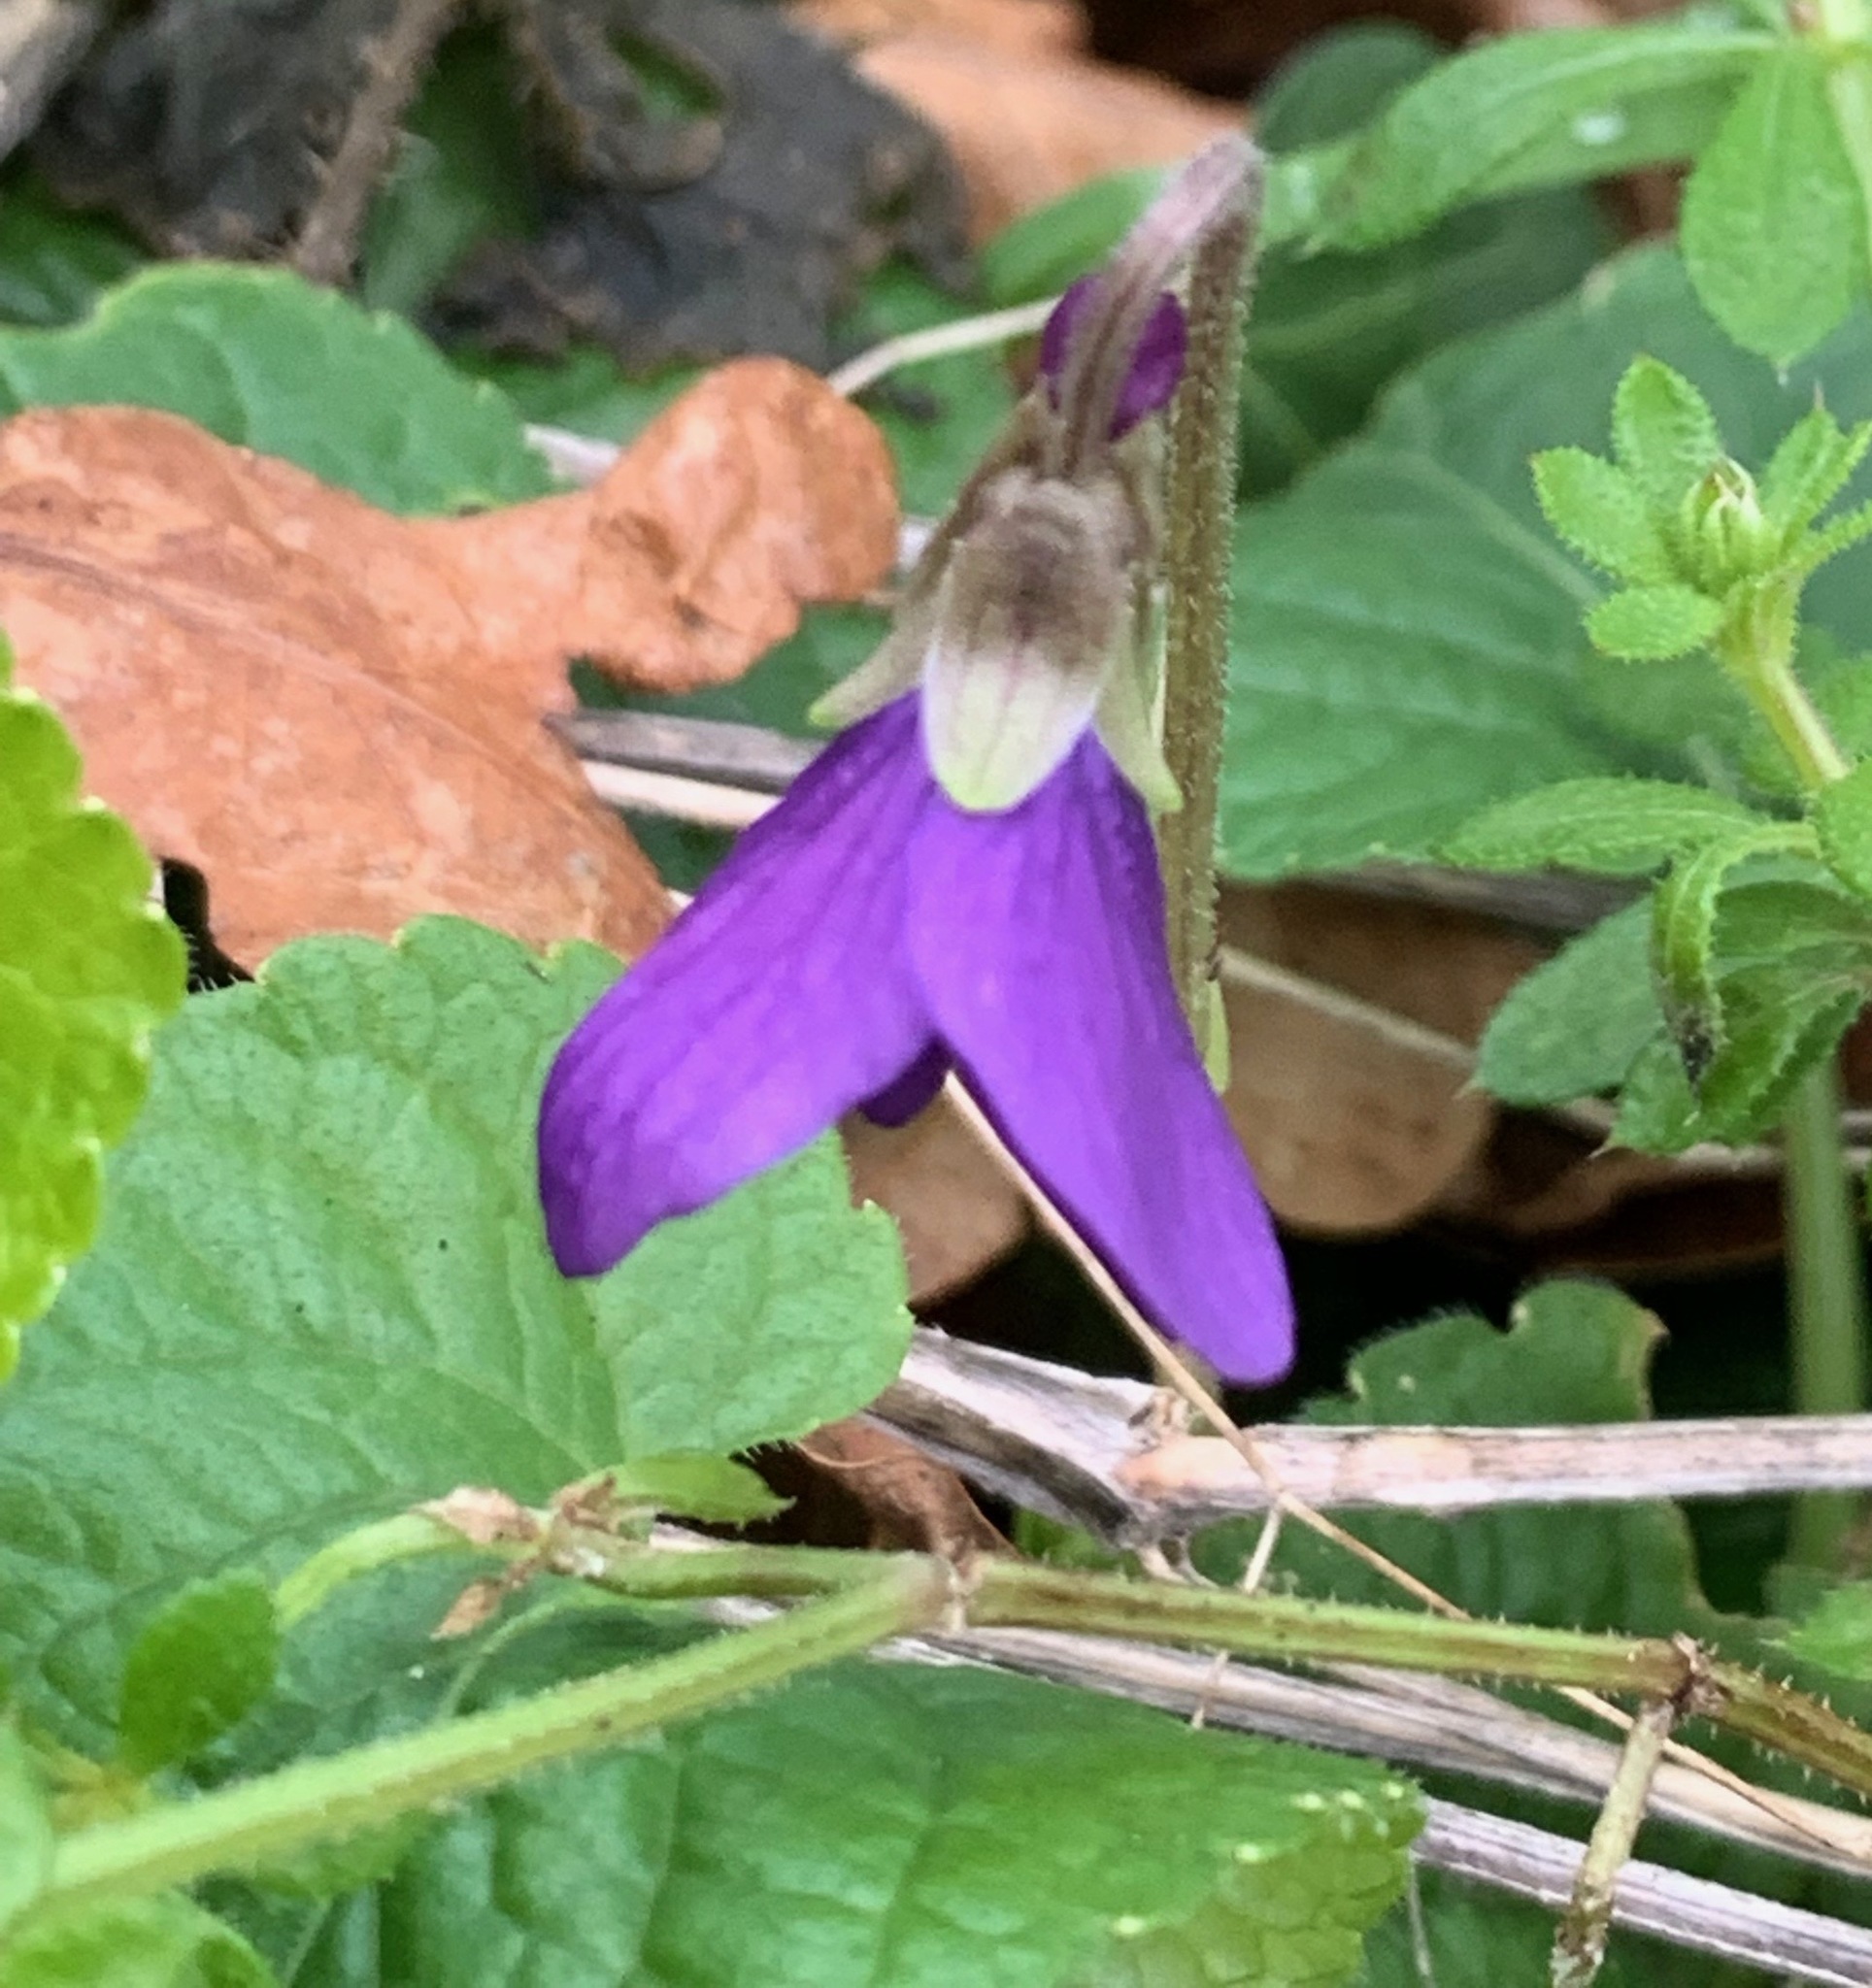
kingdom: Plantae
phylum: Tracheophyta
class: Magnoliopsida
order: Malpighiales
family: Violaceae
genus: Viola
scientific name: Viola odorata
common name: Sweet violet
